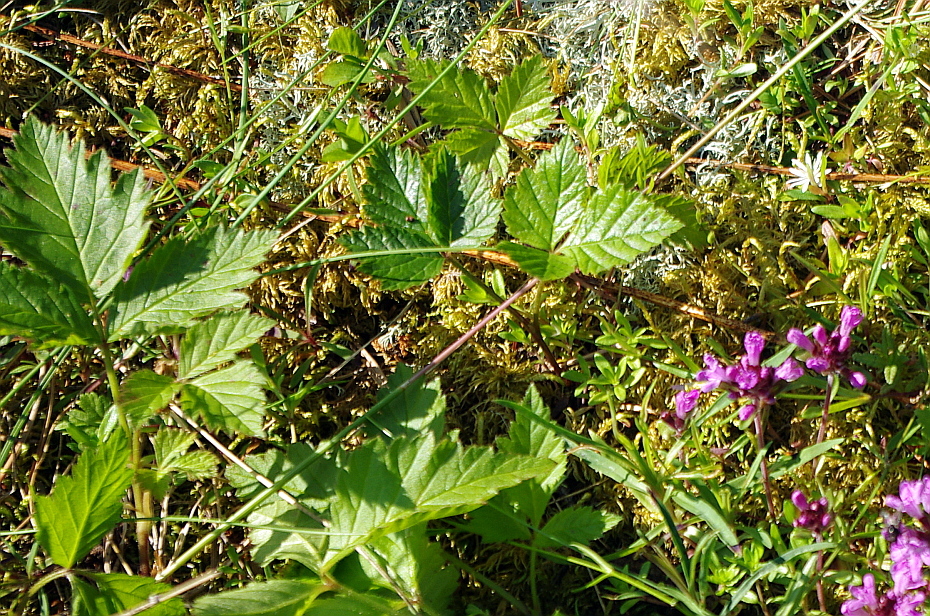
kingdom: Plantae
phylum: Tracheophyta
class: Magnoliopsida
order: Rosales
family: Rosaceae
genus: Rubus
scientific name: Rubus saxatilis
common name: Stone bramble
